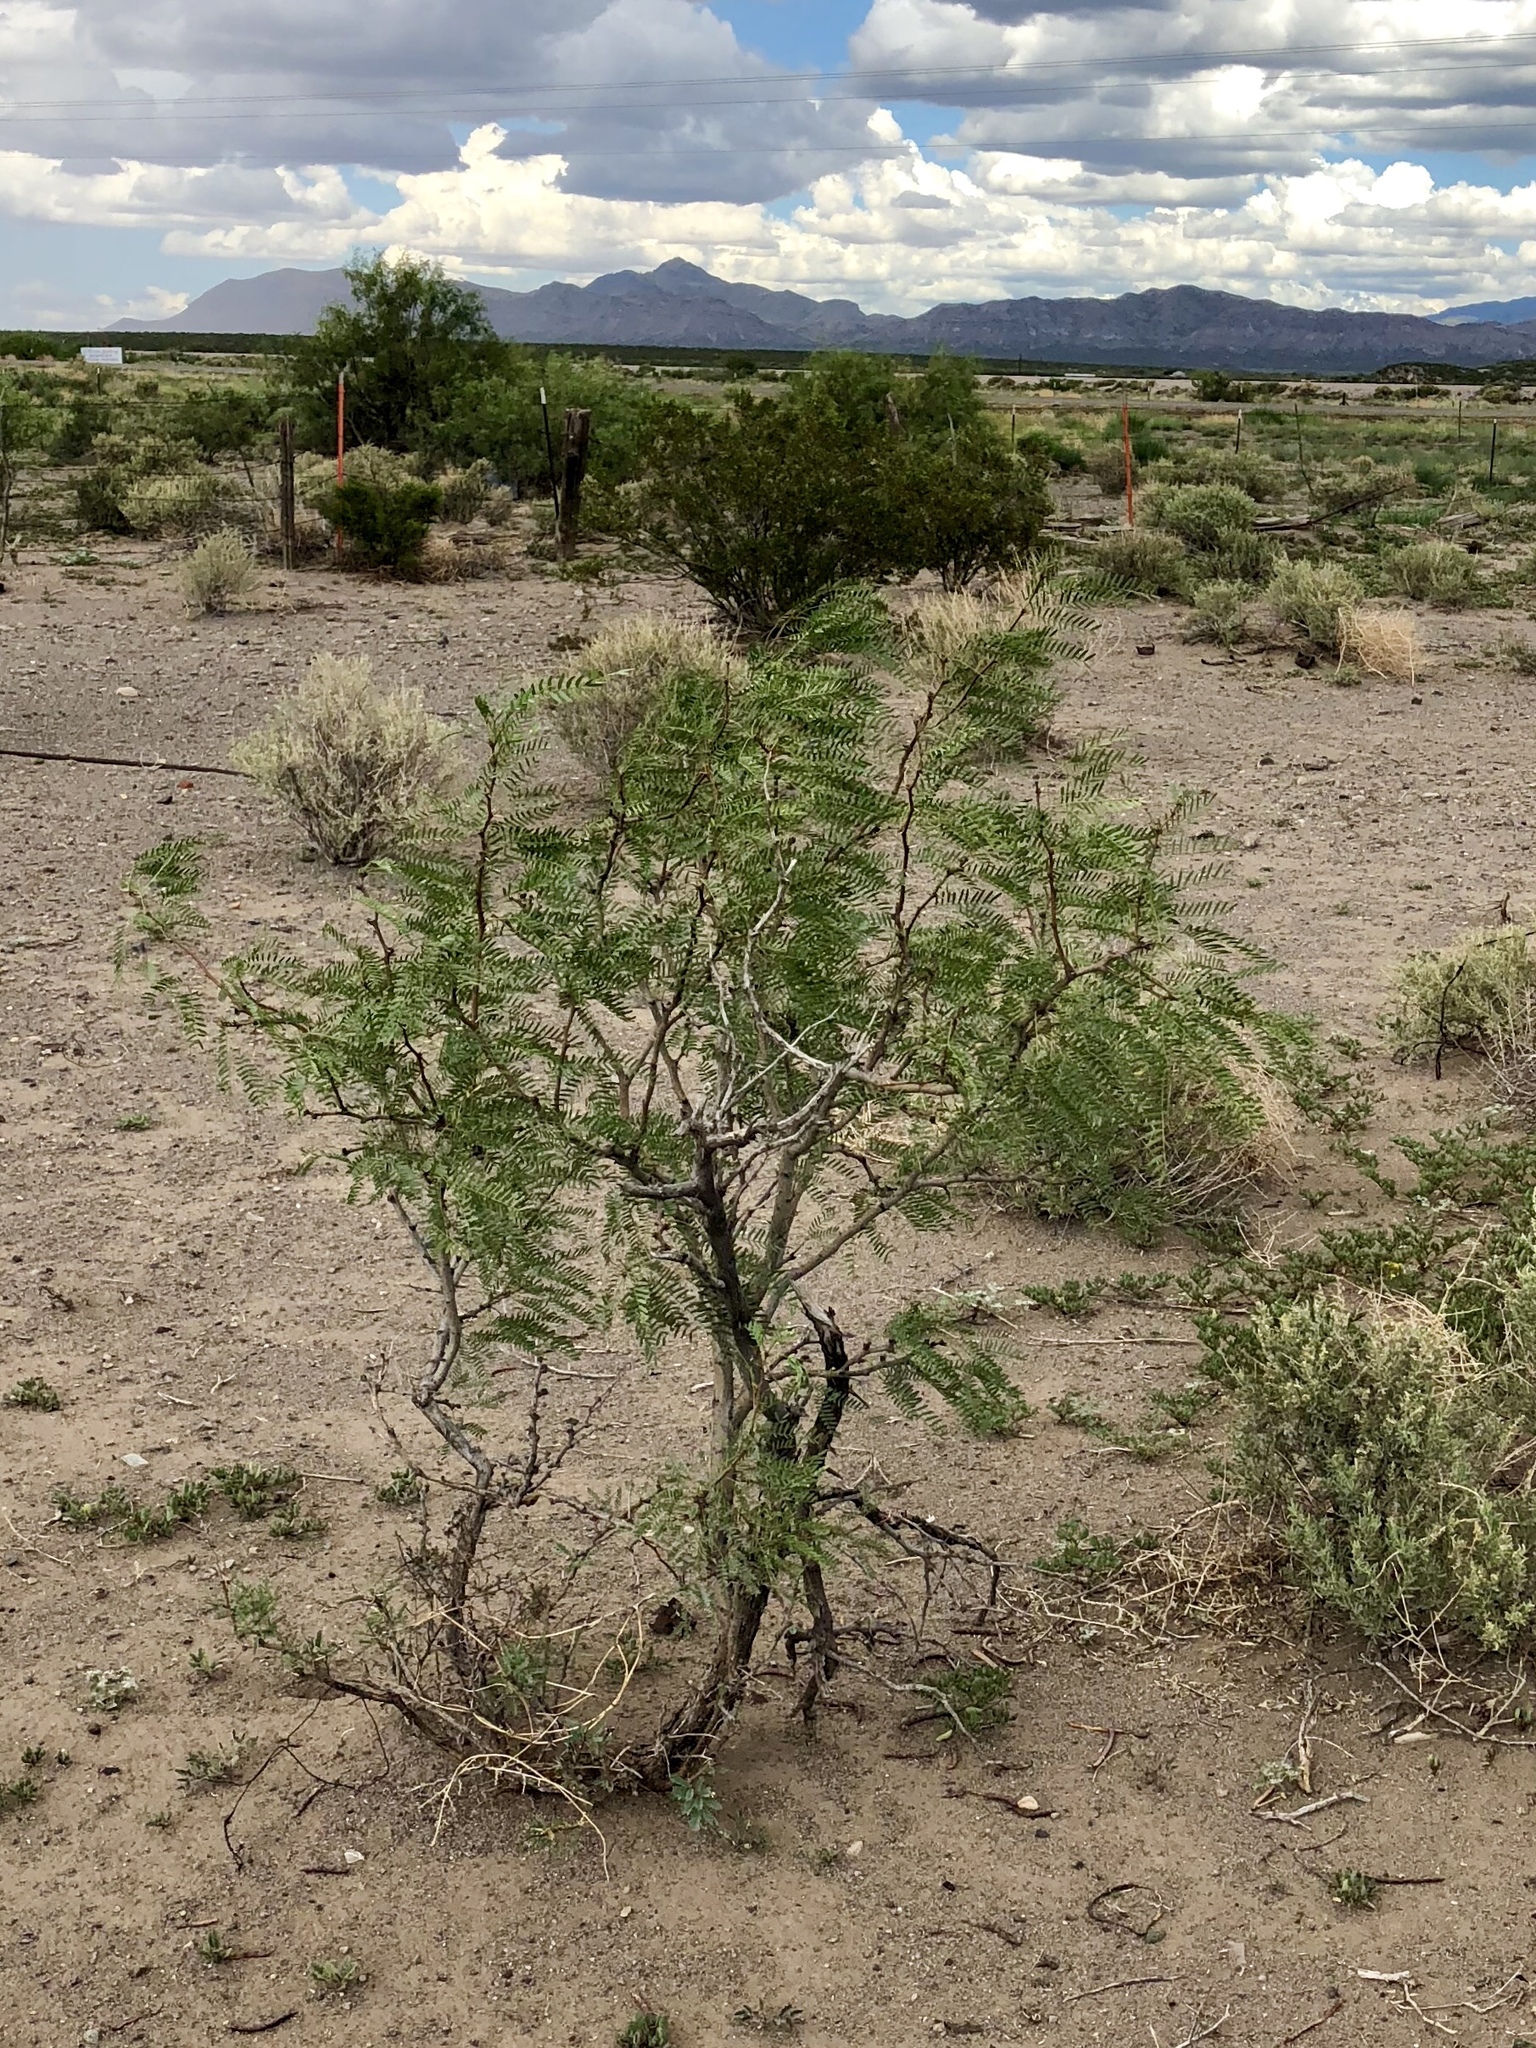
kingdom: Plantae
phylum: Tracheophyta
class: Magnoliopsida
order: Fabales
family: Fabaceae
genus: Prosopis
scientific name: Prosopis glandulosa
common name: Honey mesquite
